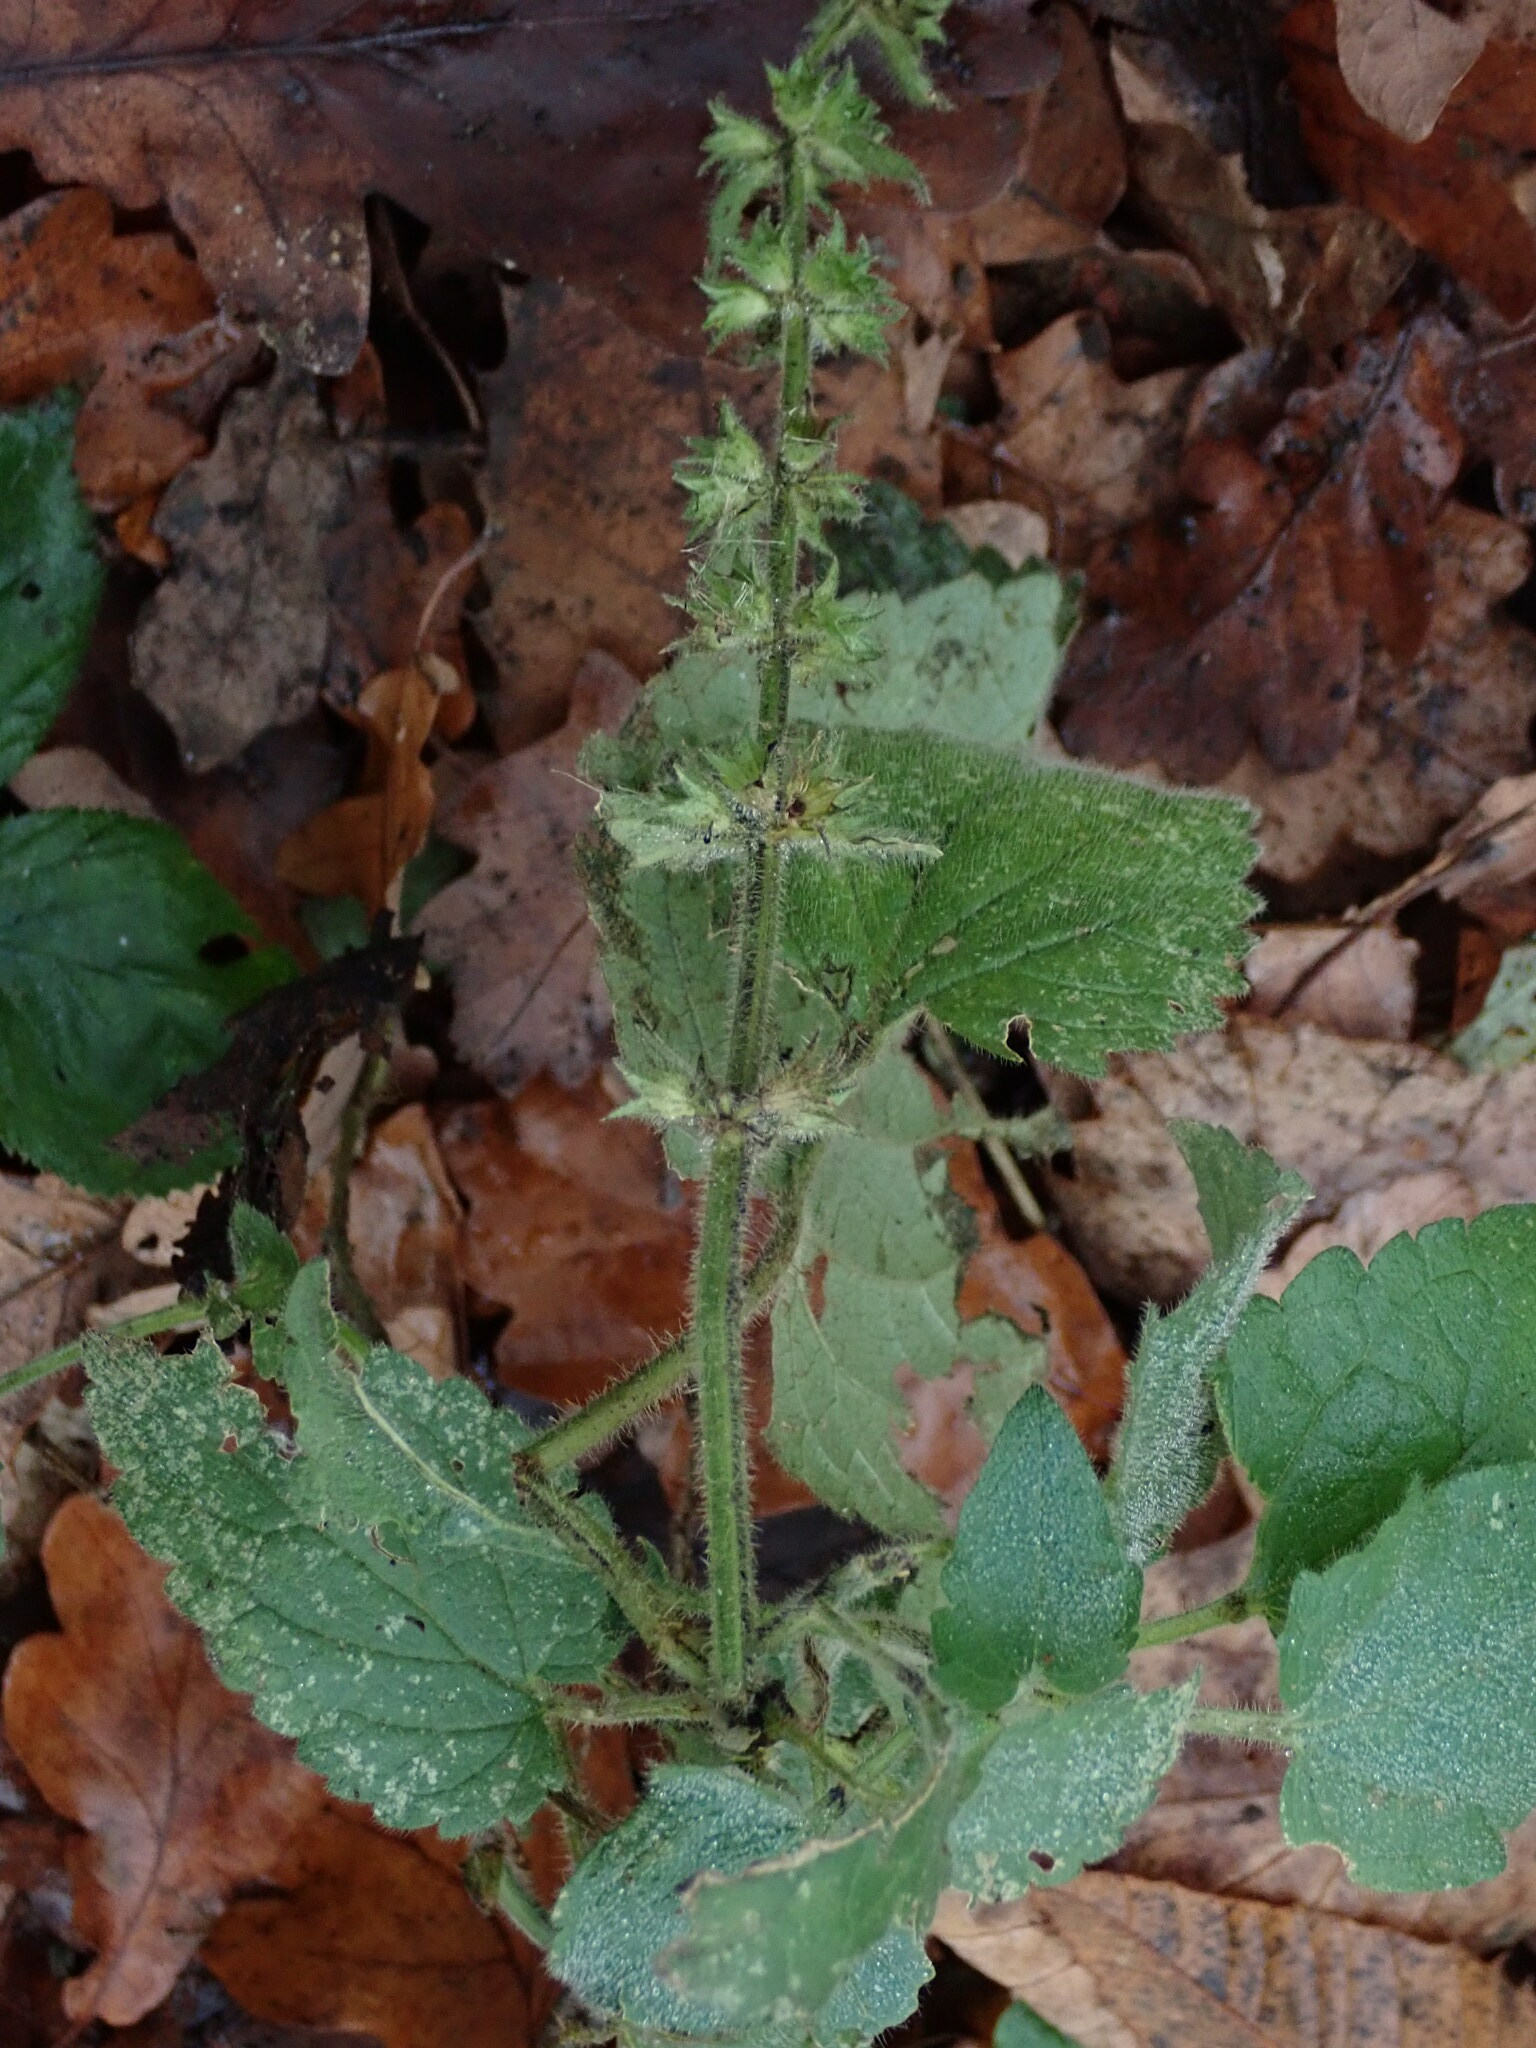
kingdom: Plantae
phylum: Tracheophyta
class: Magnoliopsida
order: Lamiales
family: Lamiaceae
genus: Stachys
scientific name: Stachys sylvatica
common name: Hedge woundwort
